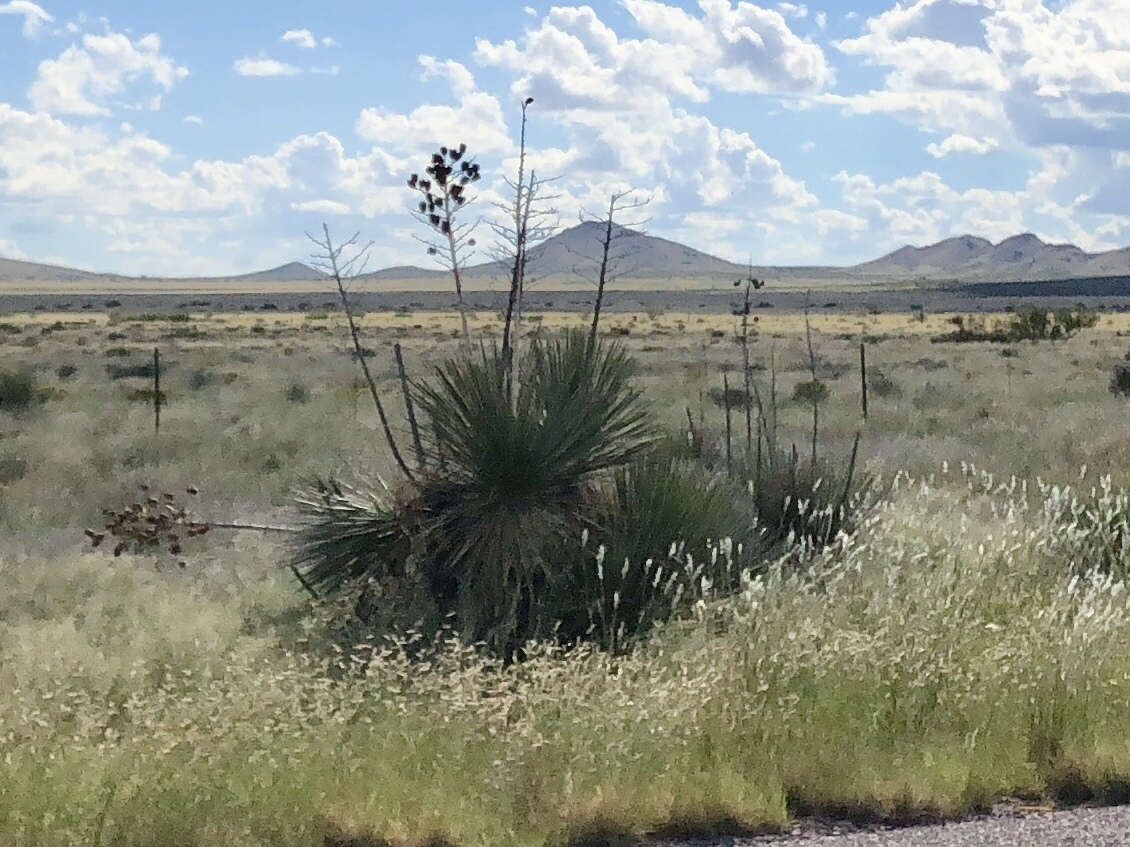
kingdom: Plantae
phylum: Tracheophyta
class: Liliopsida
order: Asparagales
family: Asparagaceae
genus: Yucca
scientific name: Yucca elata
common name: Palmella
